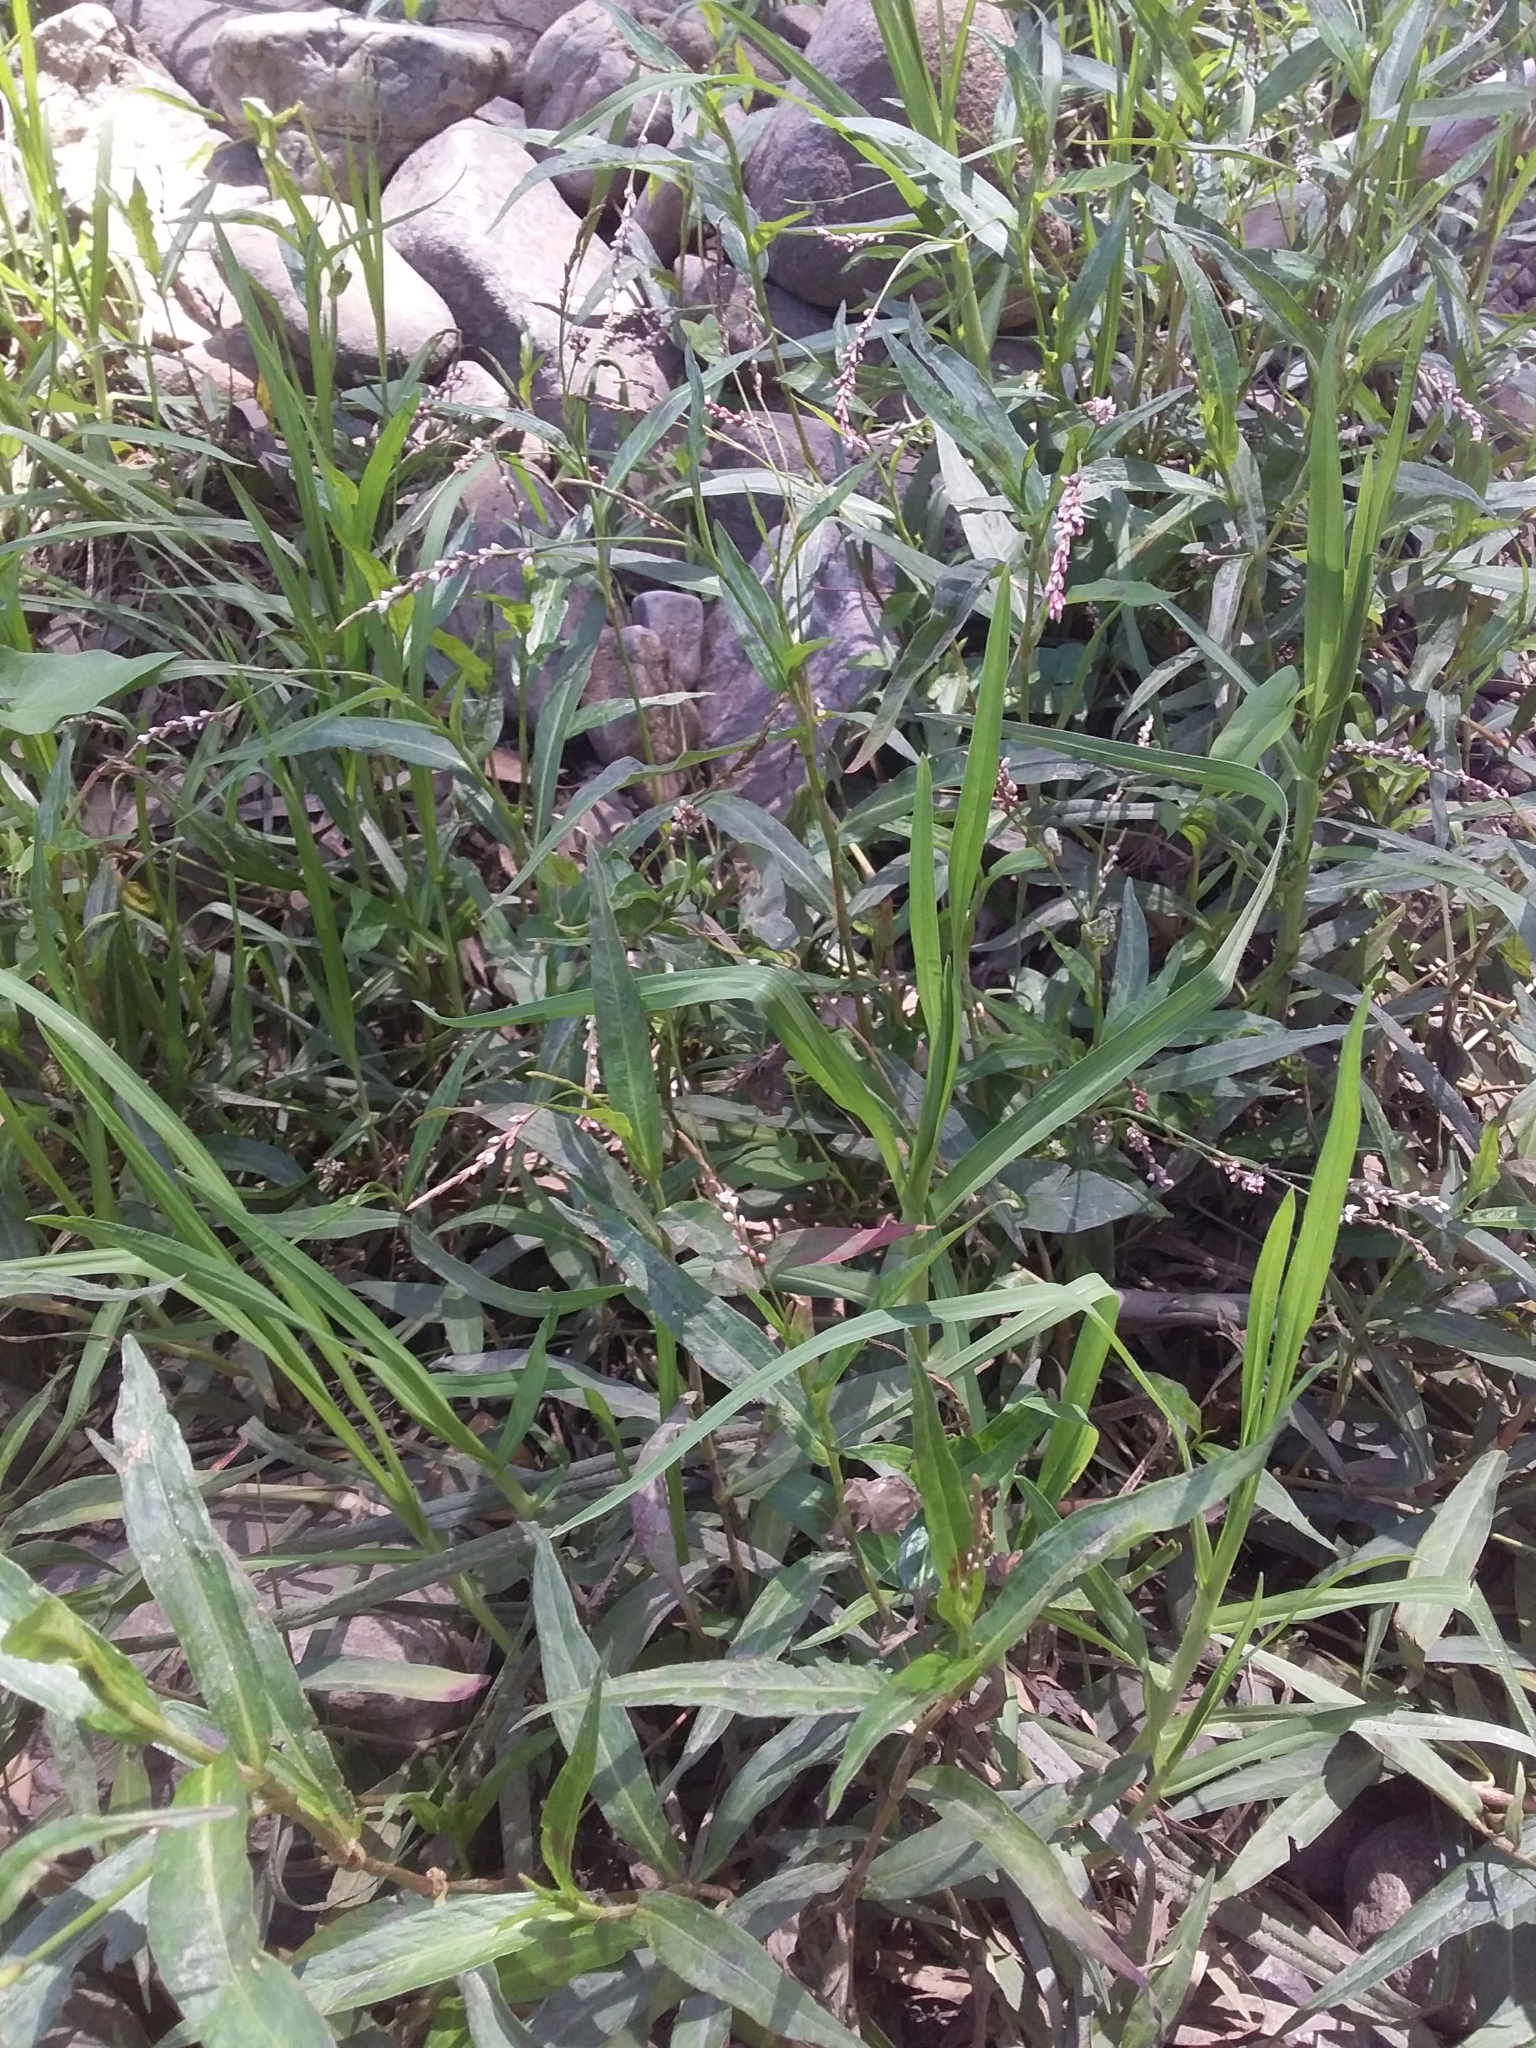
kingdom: Plantae
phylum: Tracheophyta
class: Magnoliopsida
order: Caryophyllales
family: Polygonaceae
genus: Persicaria
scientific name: Persicaria decipiens
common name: Willow-weed
